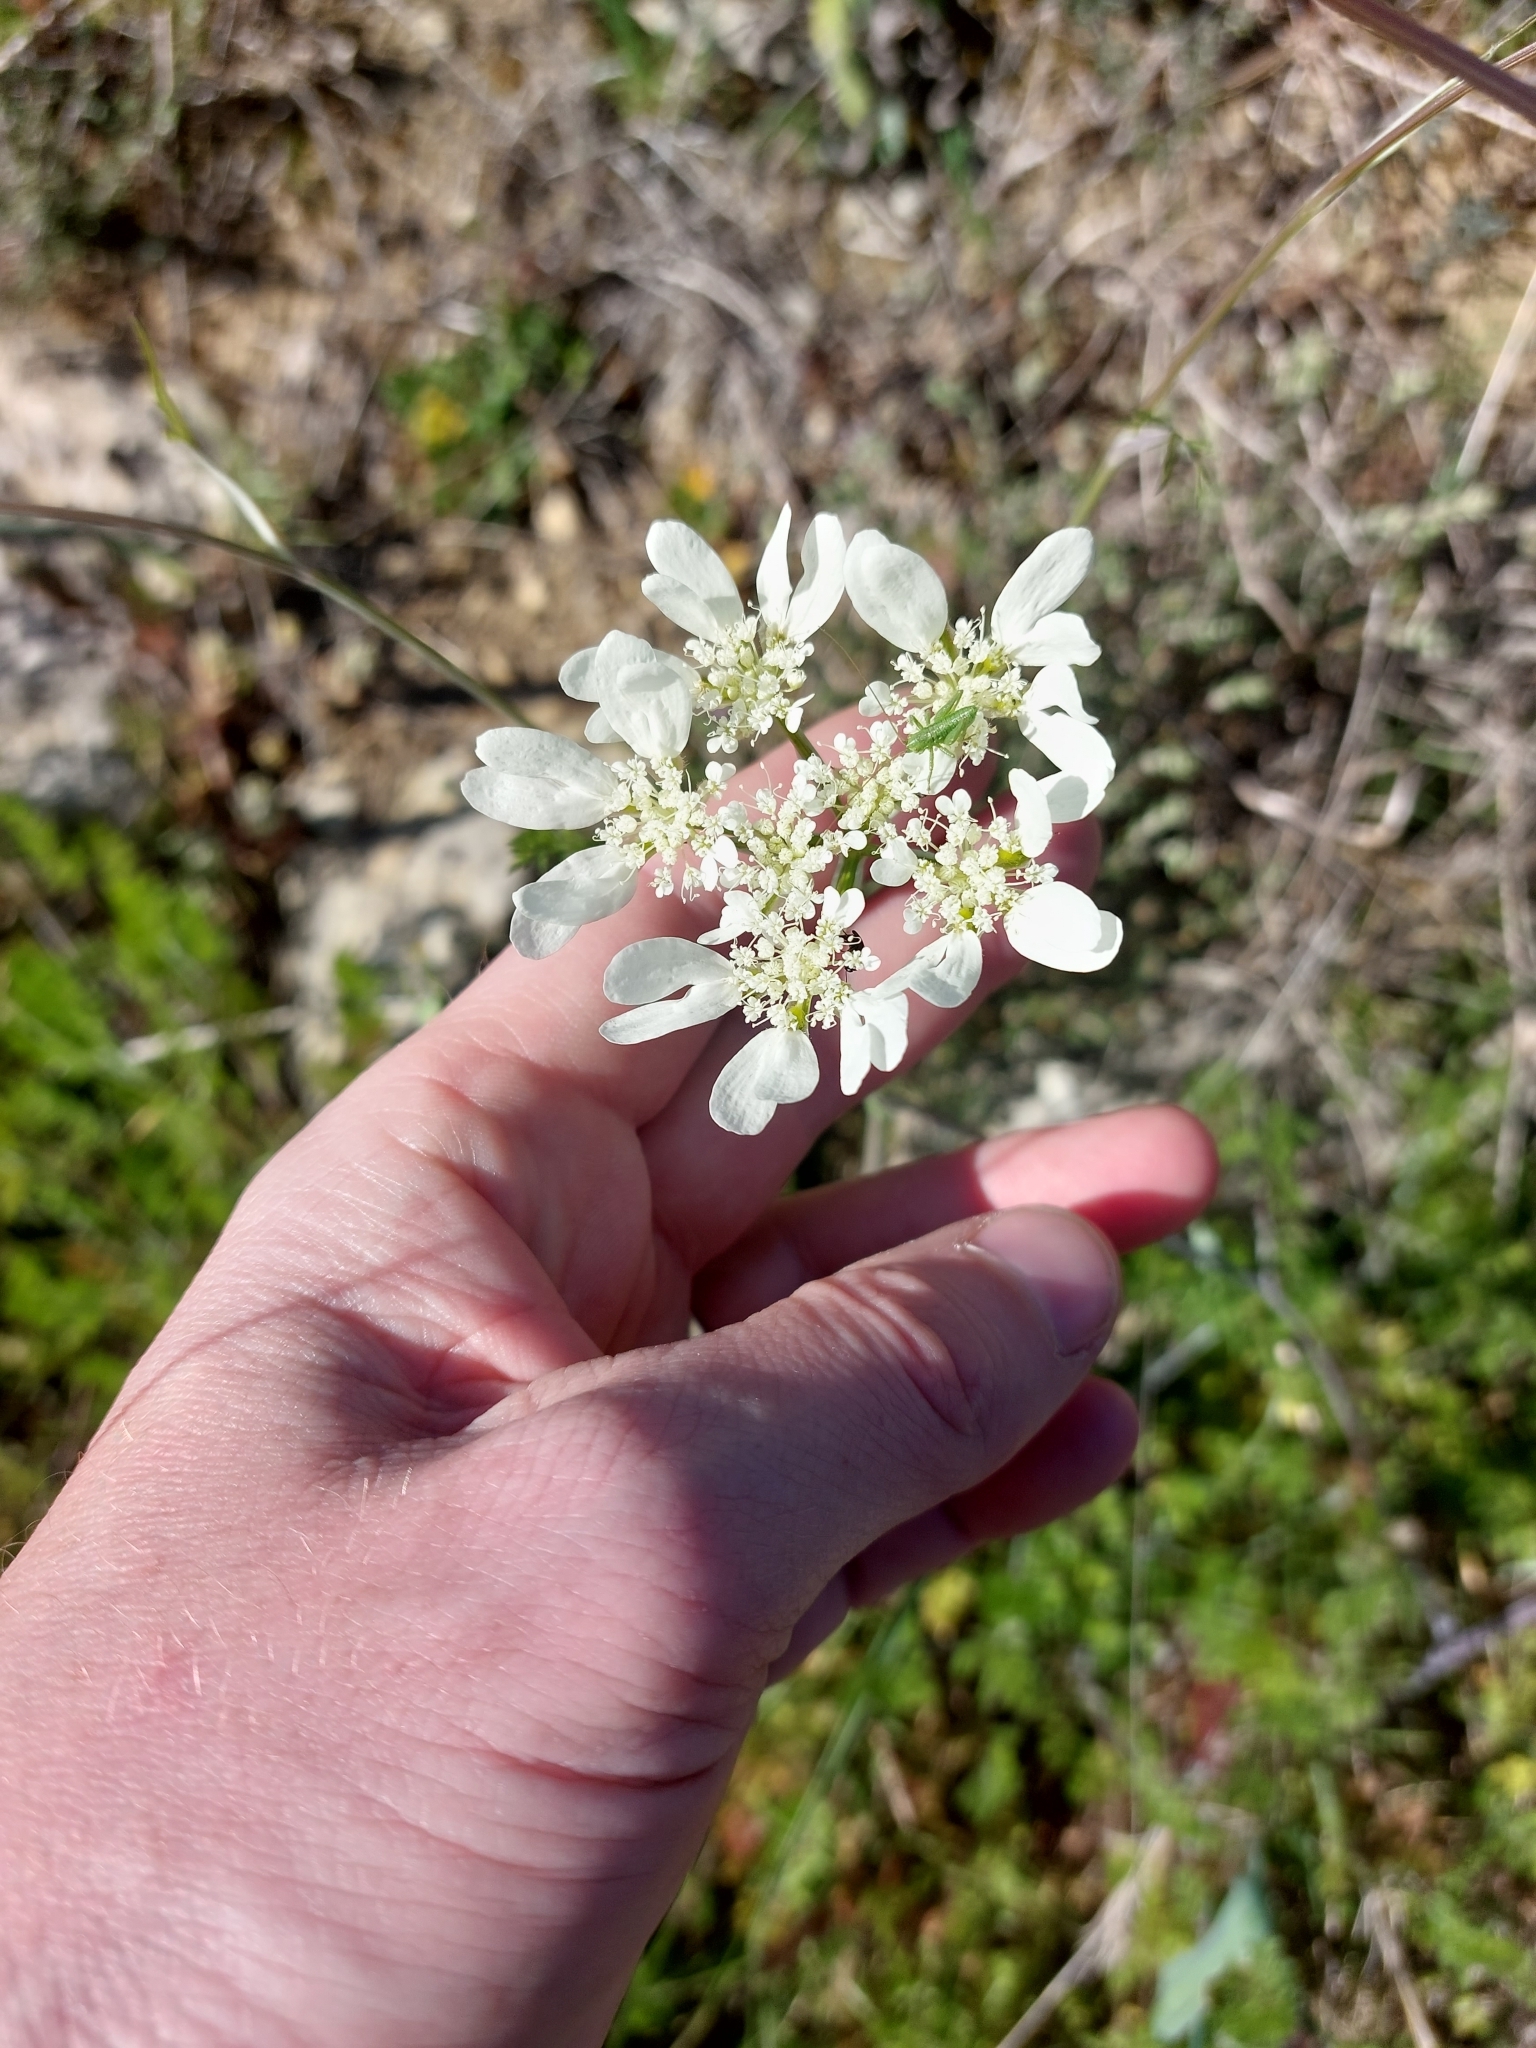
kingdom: Plantae
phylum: Tracheophyta
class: Magnoliopsida
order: Apiales
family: Apiaceae
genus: Orlaya
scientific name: Orlaya grandiflora
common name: White lace flower
